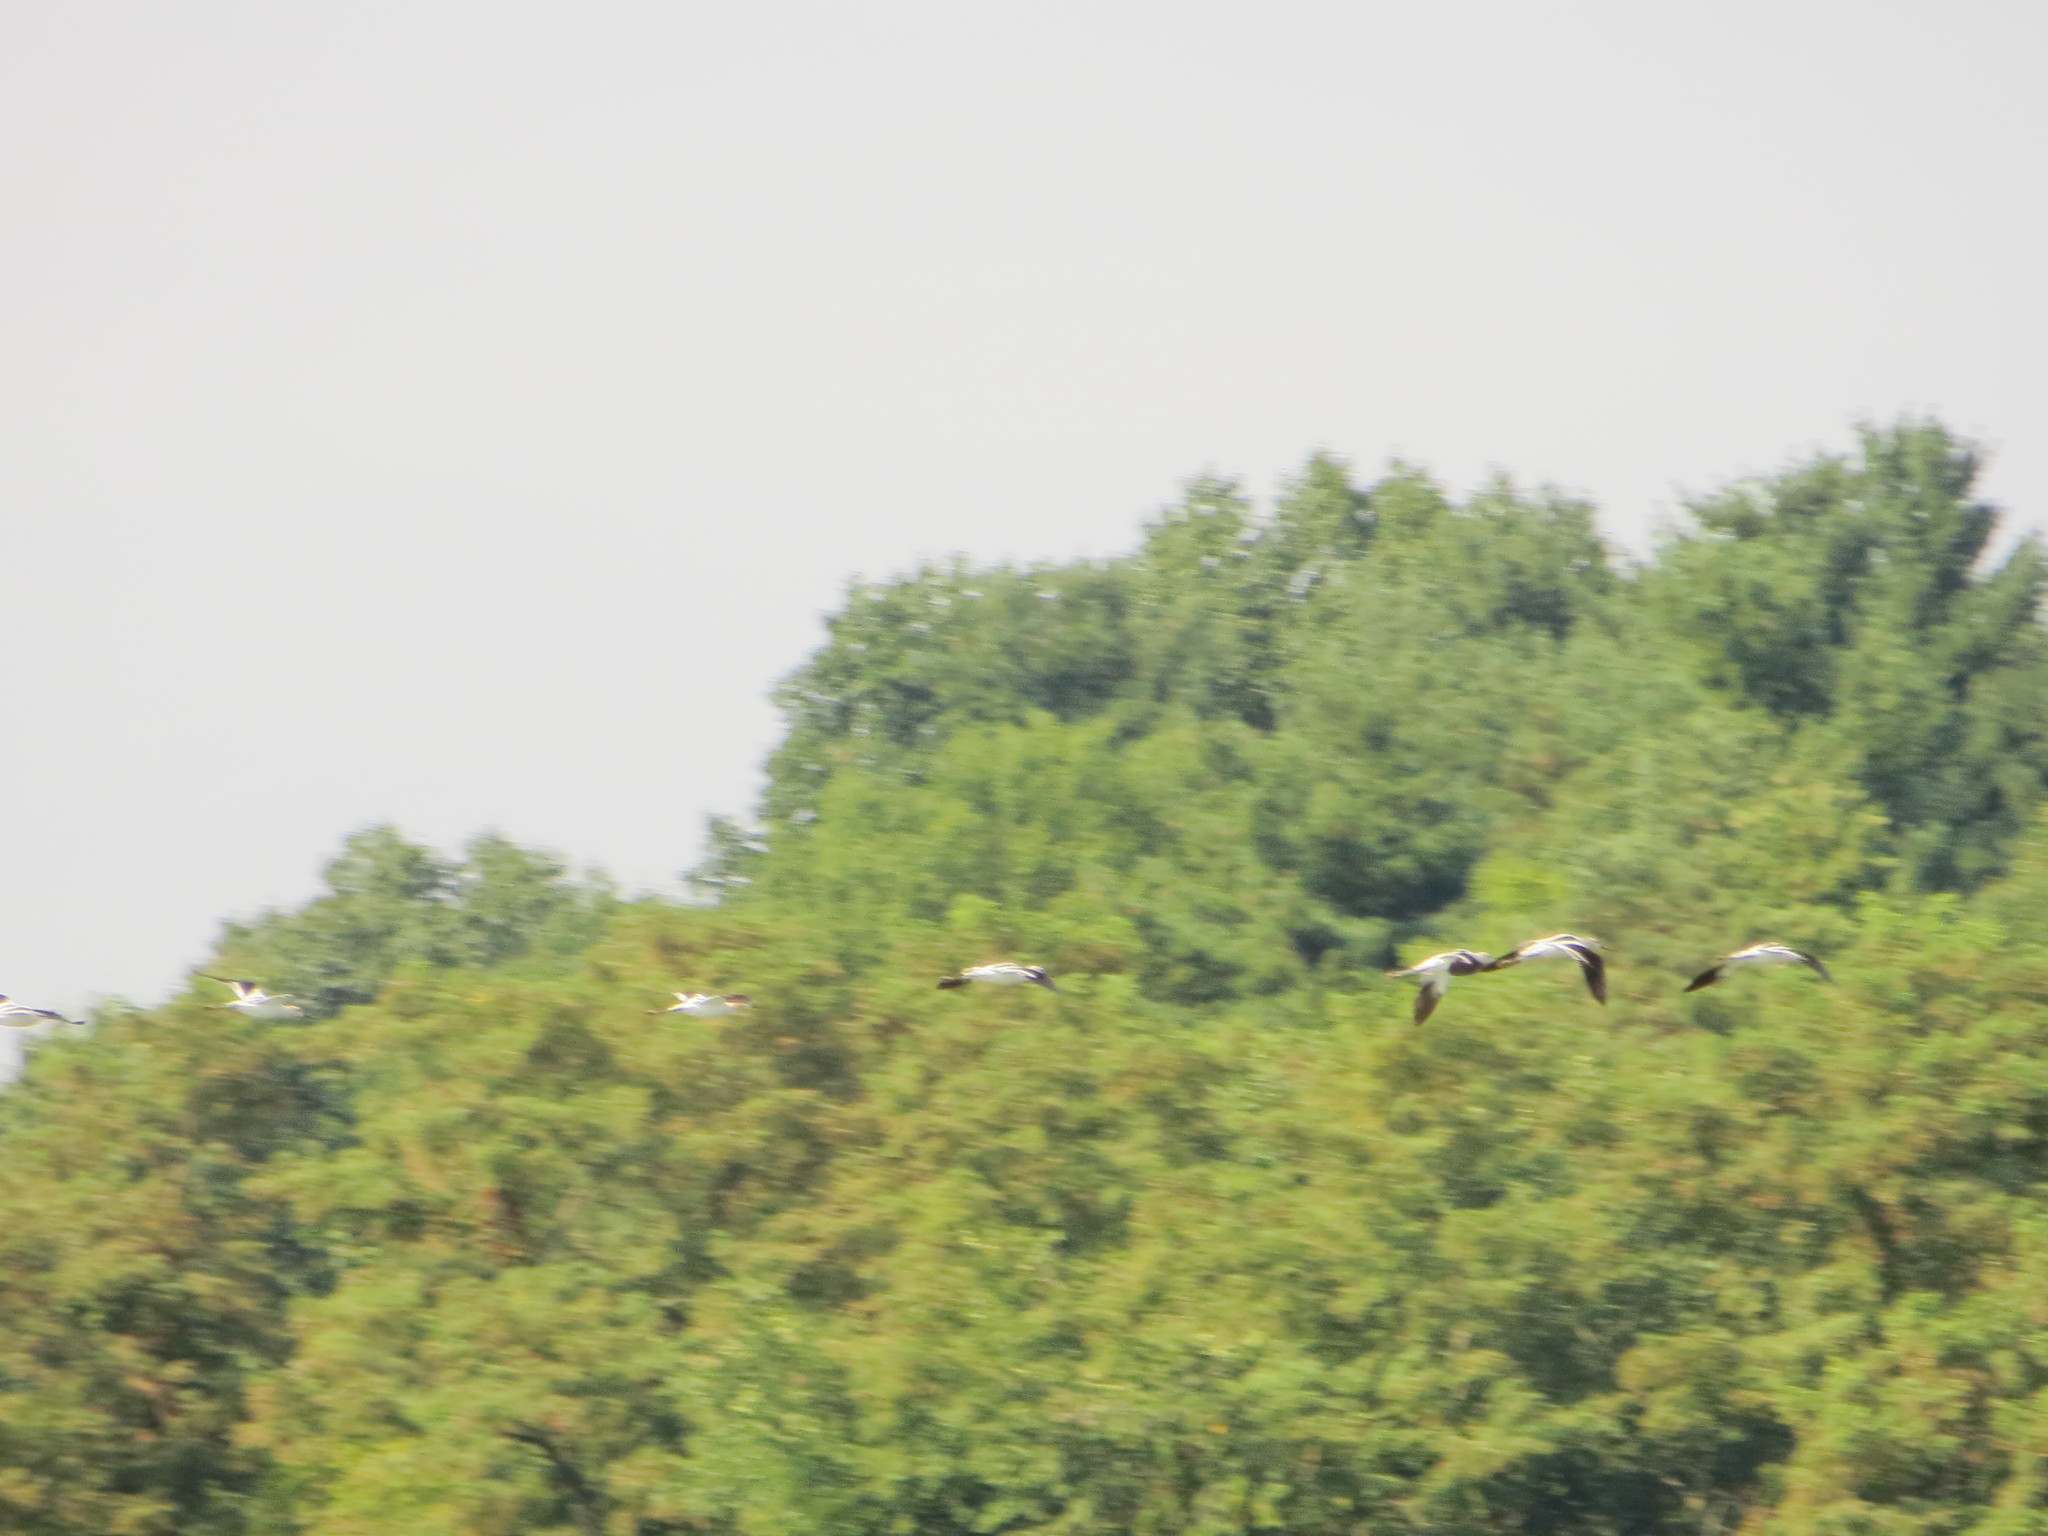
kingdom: Animalia
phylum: Chordata
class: Aves
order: Charadriiformes
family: Recurvirostridae
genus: Recurvirostra
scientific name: Recurvirostra americana
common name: American avocet
